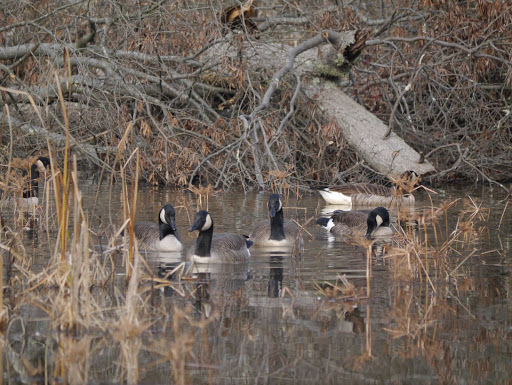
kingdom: Animalia
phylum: Chordata
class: Aves
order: Anseriformes
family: Anatidae
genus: Branta
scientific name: Branta canadensis
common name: Canada goose
